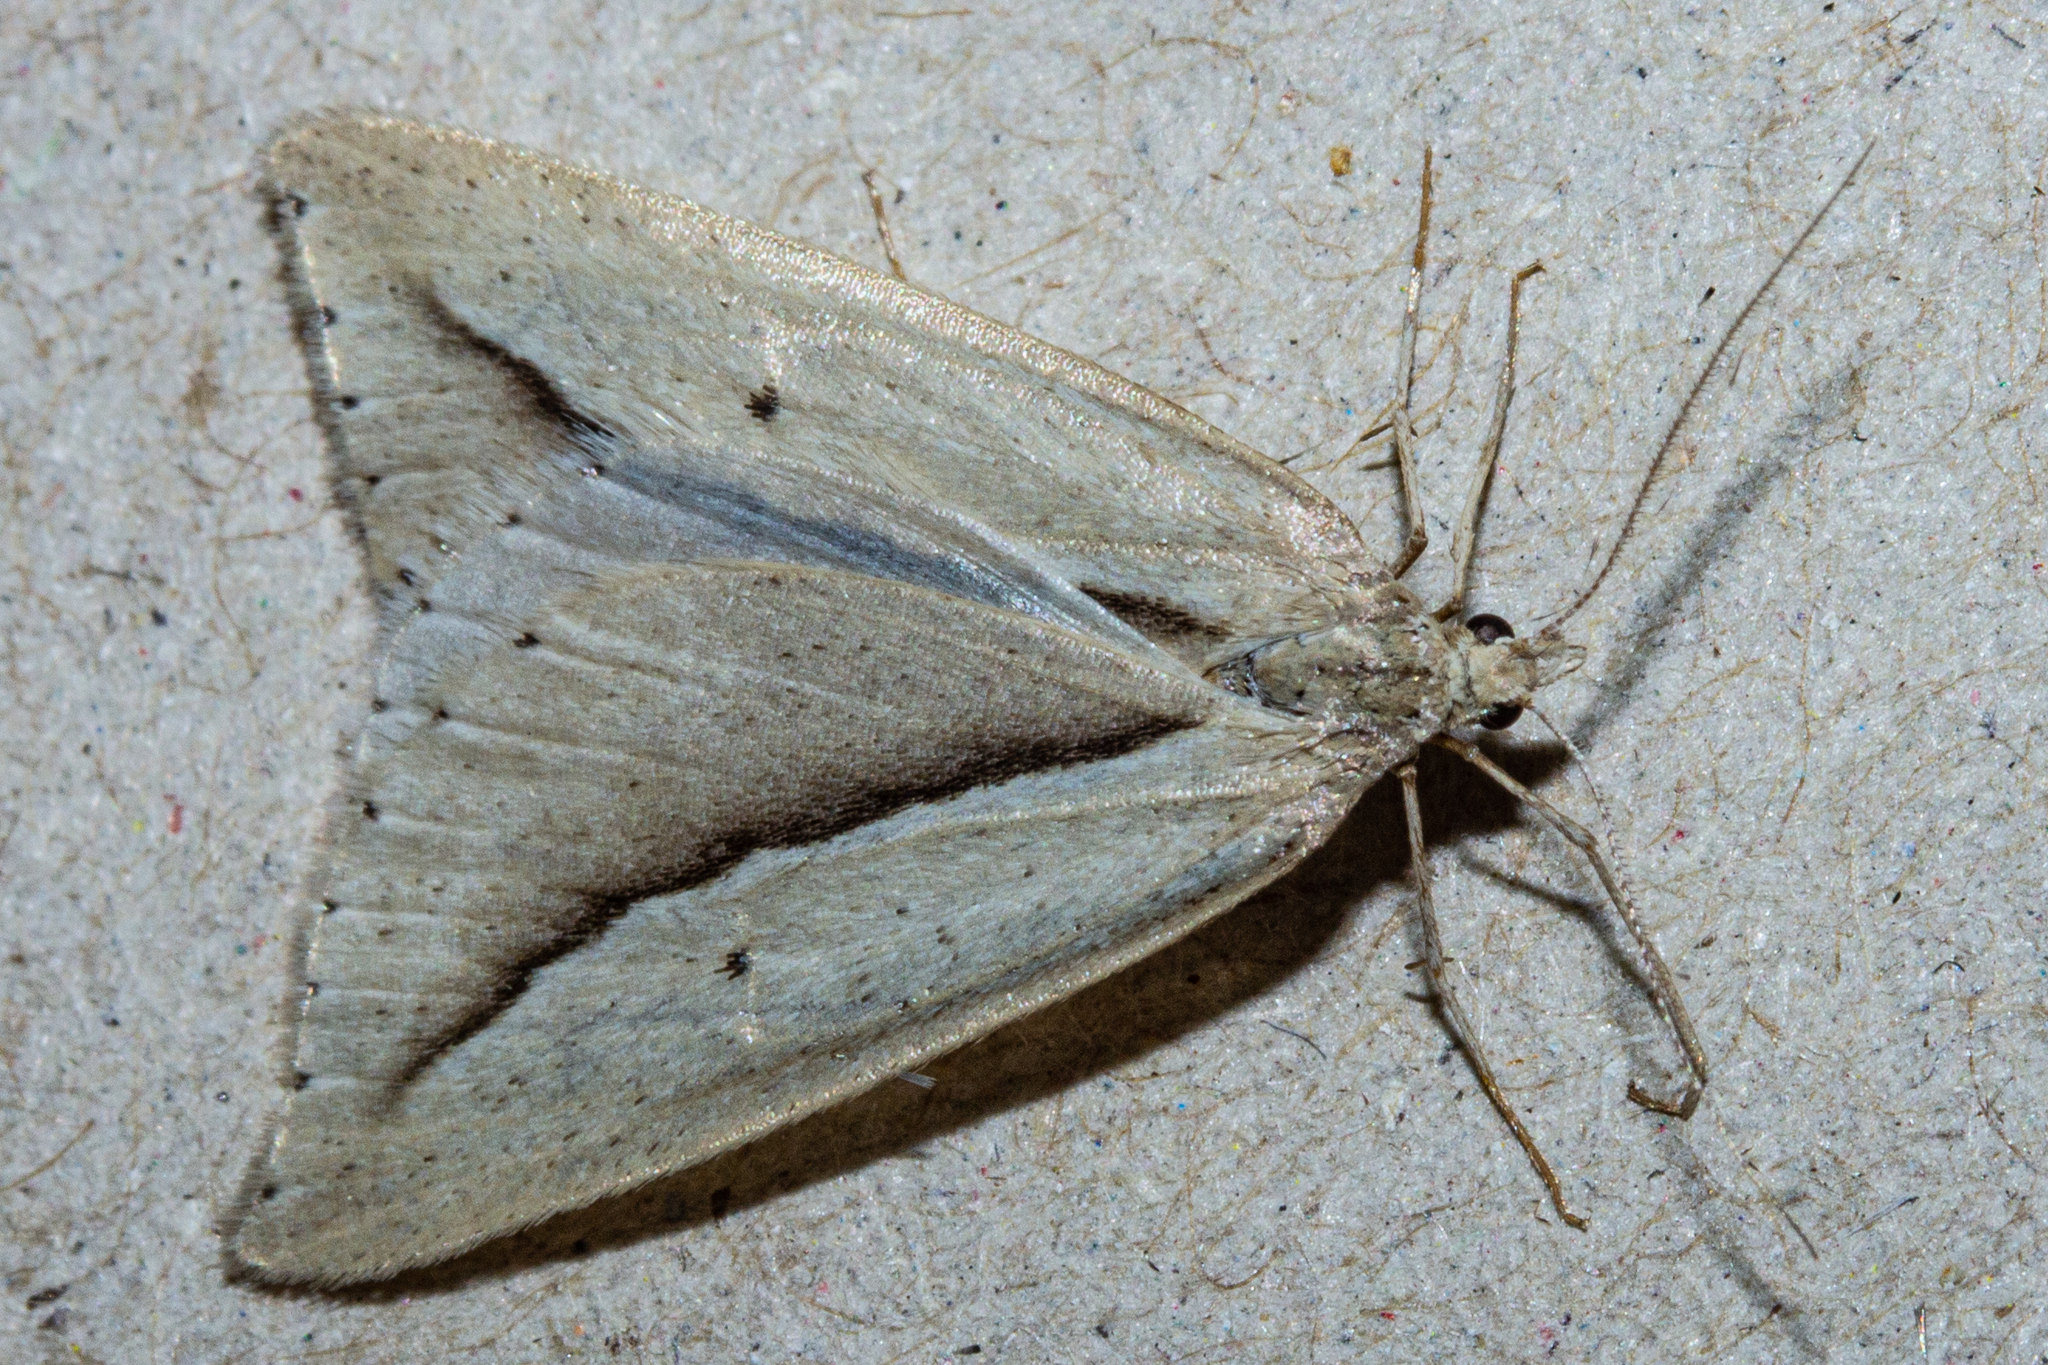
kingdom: Animalia
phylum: Arthropoda
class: Insecta
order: Lepidoptera
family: Geometridae
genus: Theoxena
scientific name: Theoxena scissaria
